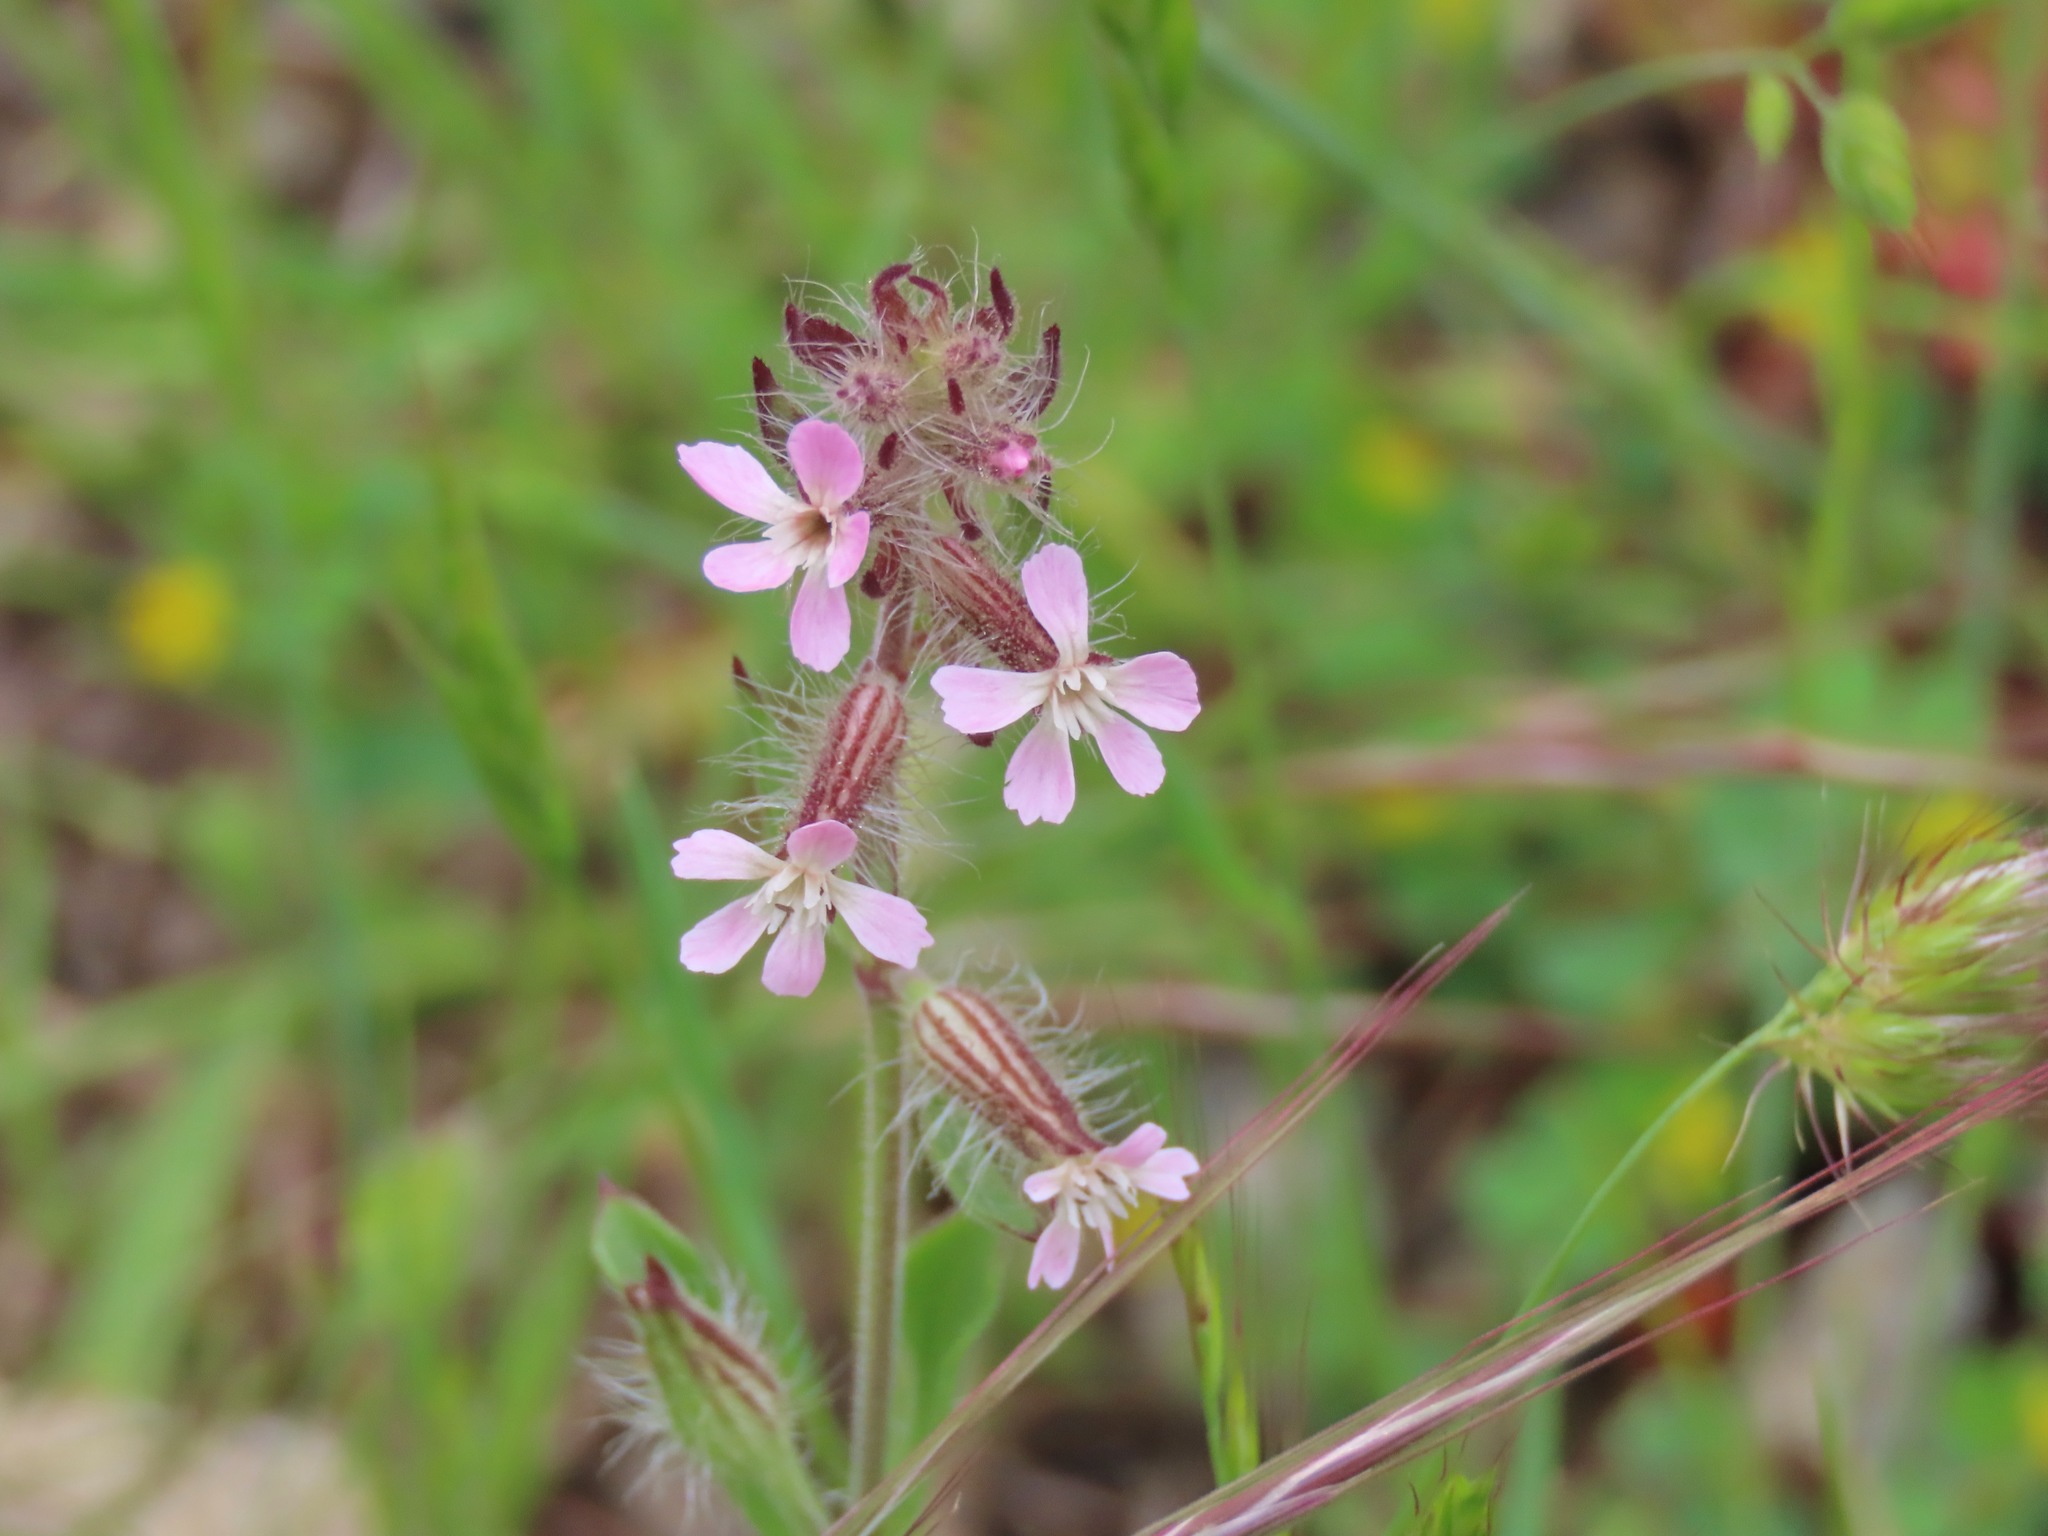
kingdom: Plantae
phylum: Tracheophyta
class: Magnoliopsida
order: Caryophyllales
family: Caryophyllaceae
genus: Silene
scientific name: Silene gallica
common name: Small-flowered catchfly
